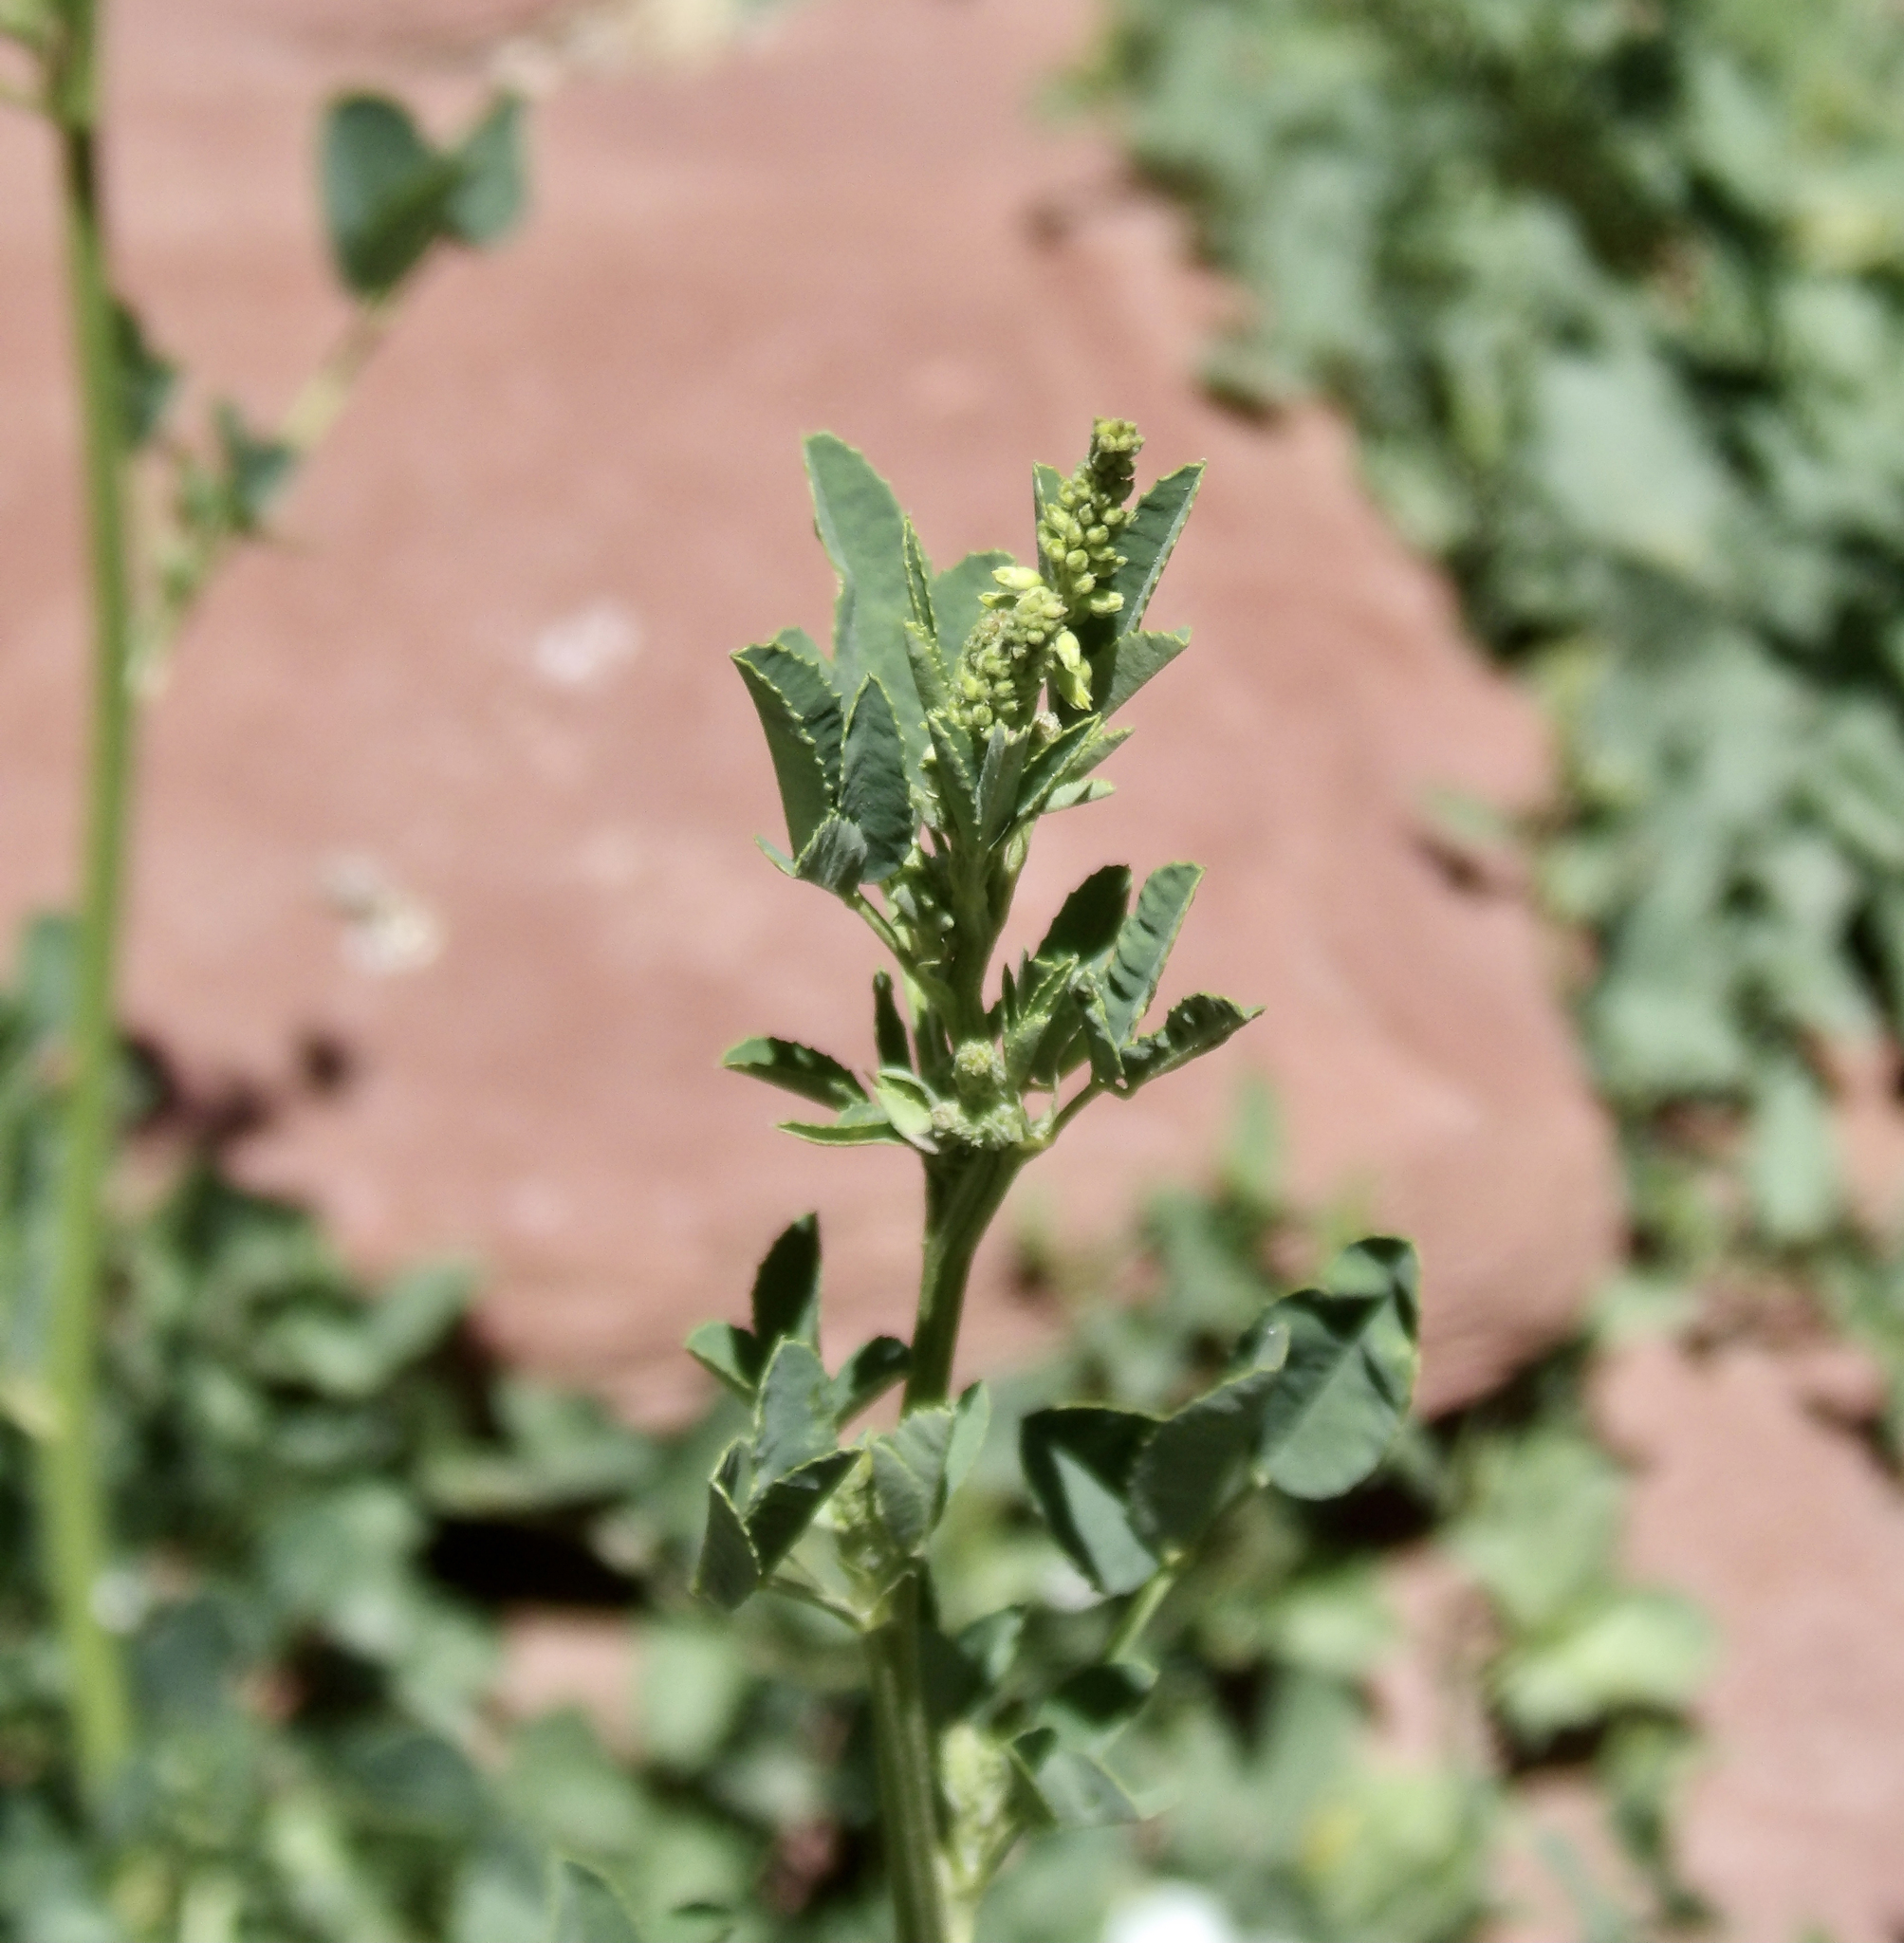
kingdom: Plantae
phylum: Tracheophyta
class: Magnoliopsida
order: Fabales
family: Fabaceae
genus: Melilotus
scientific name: Melilotus officinalis
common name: Sweetclover
